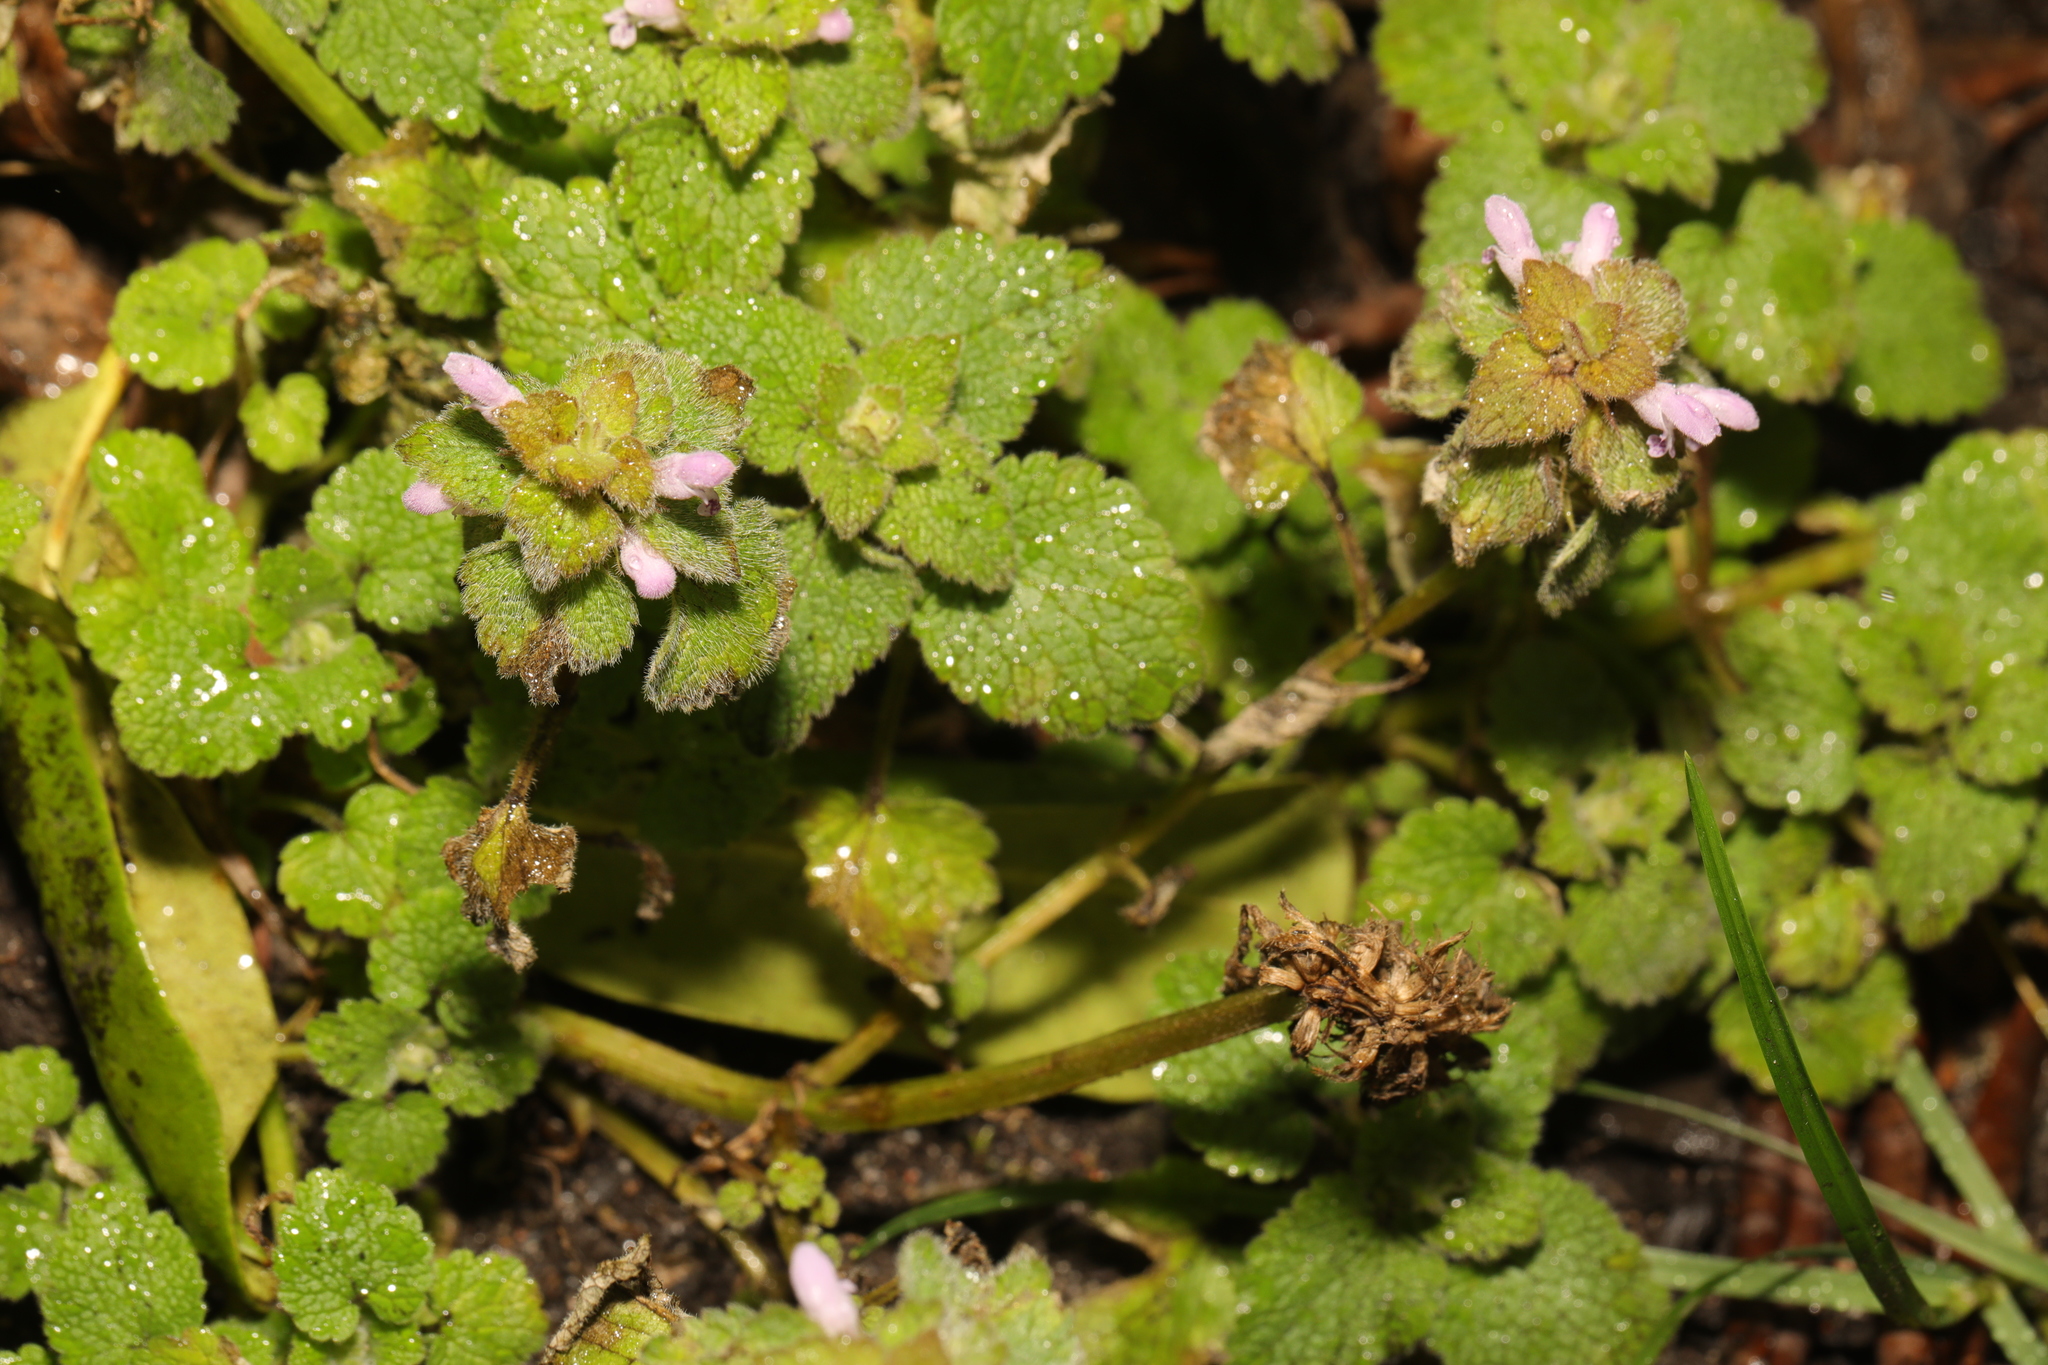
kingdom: Plantae
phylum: Tracheophyta
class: Magnoliopsida
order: Lamiales
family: Lamiaceae
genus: Lamium
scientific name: Lamium purpureum
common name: Red dead-nettle
